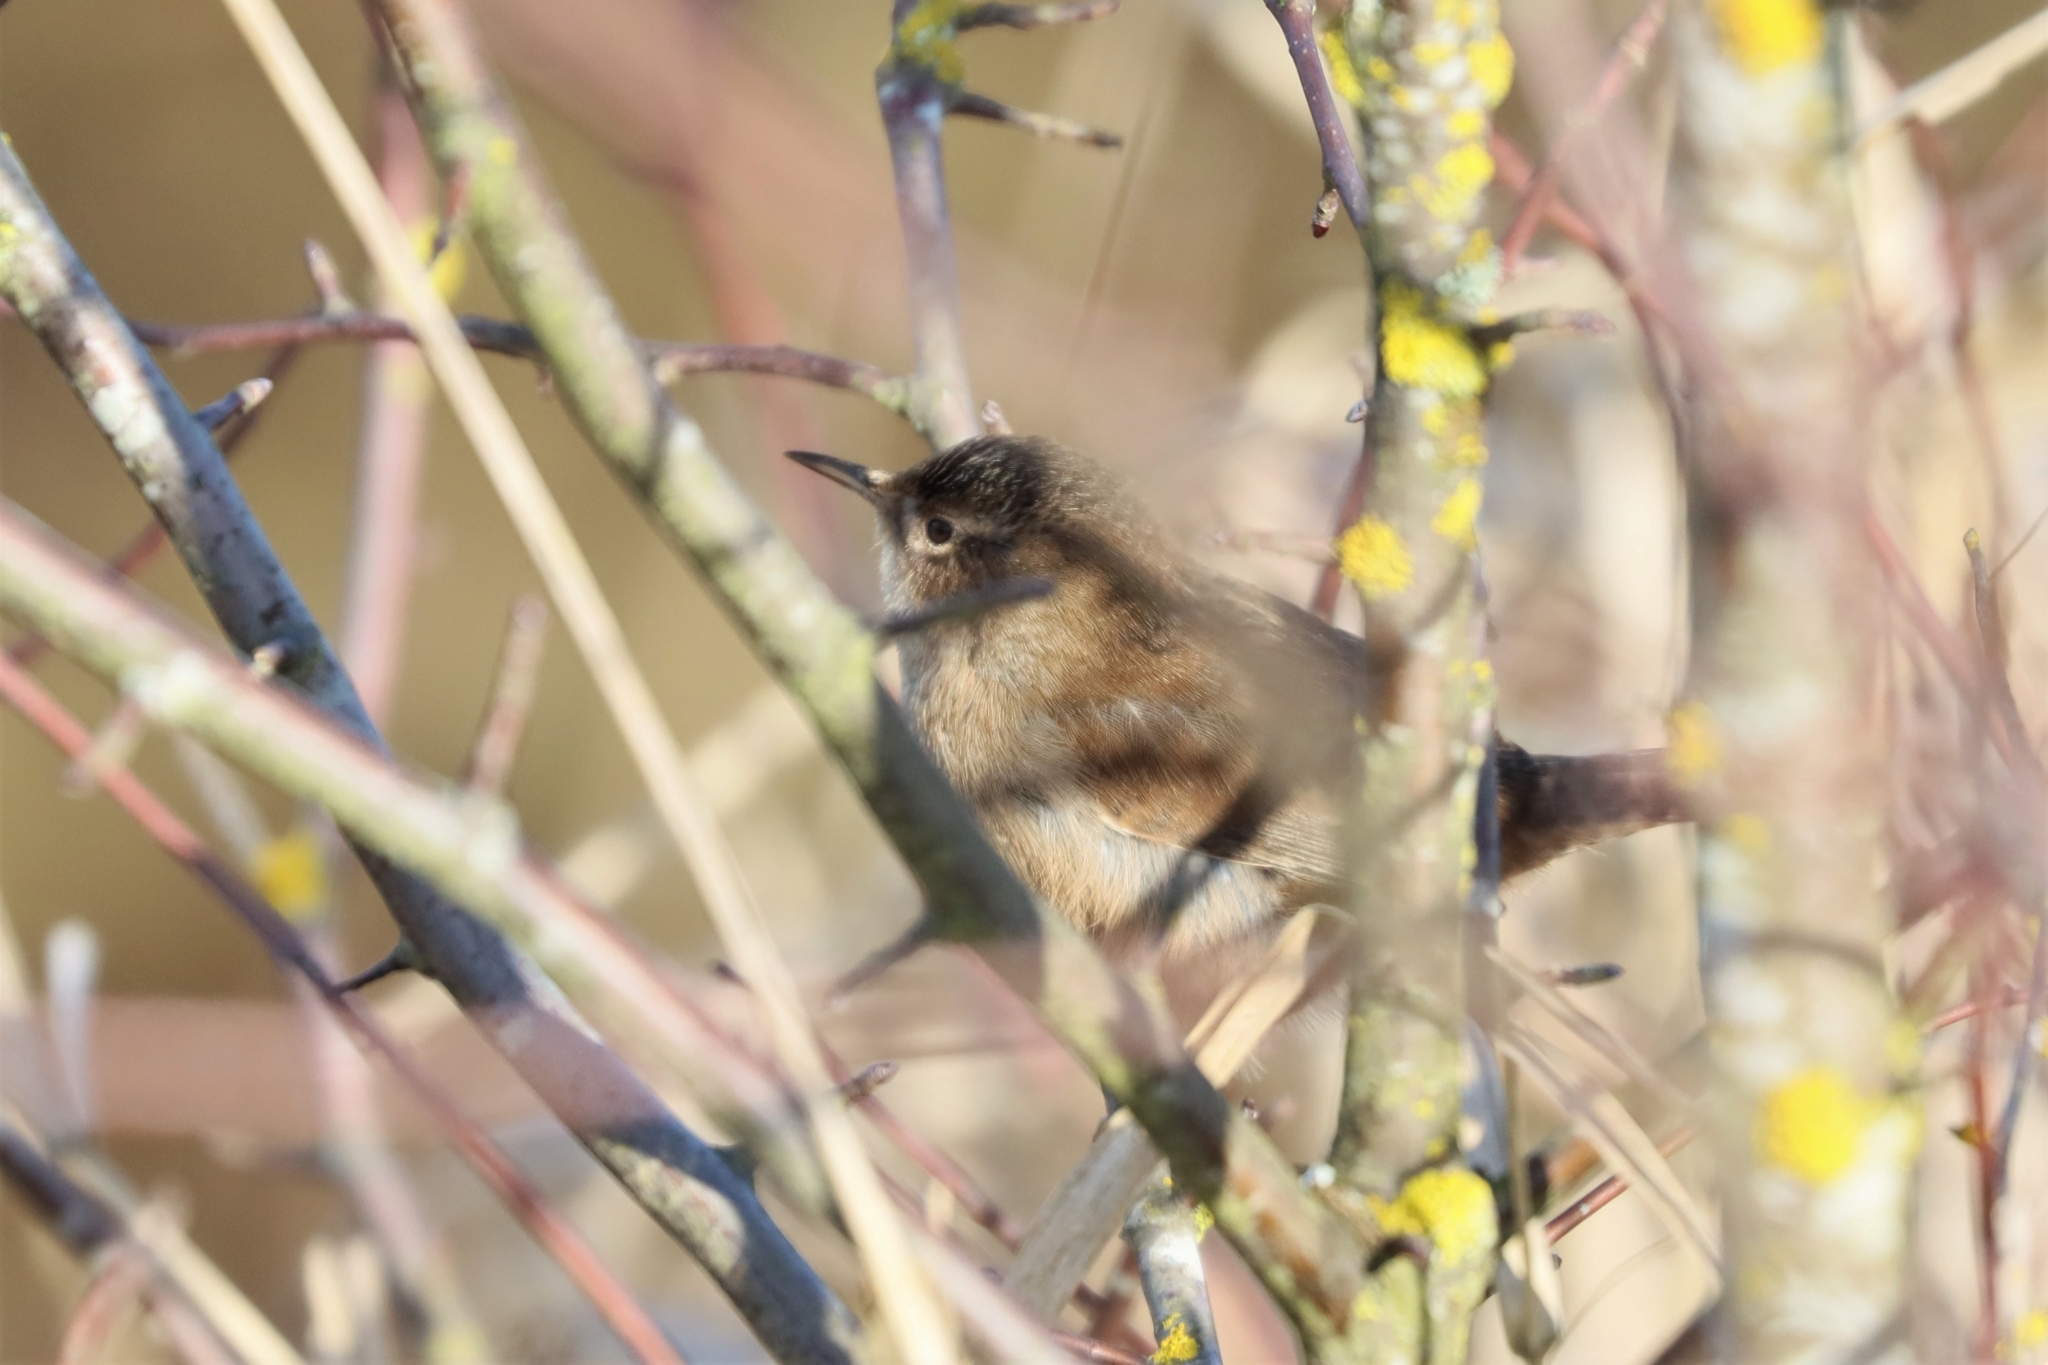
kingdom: Animalia
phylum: Chordata
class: Aves
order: Passeriformes
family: Troglodytidae
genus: Cistothorus
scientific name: Cistothorus palustris
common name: Marsh wren
